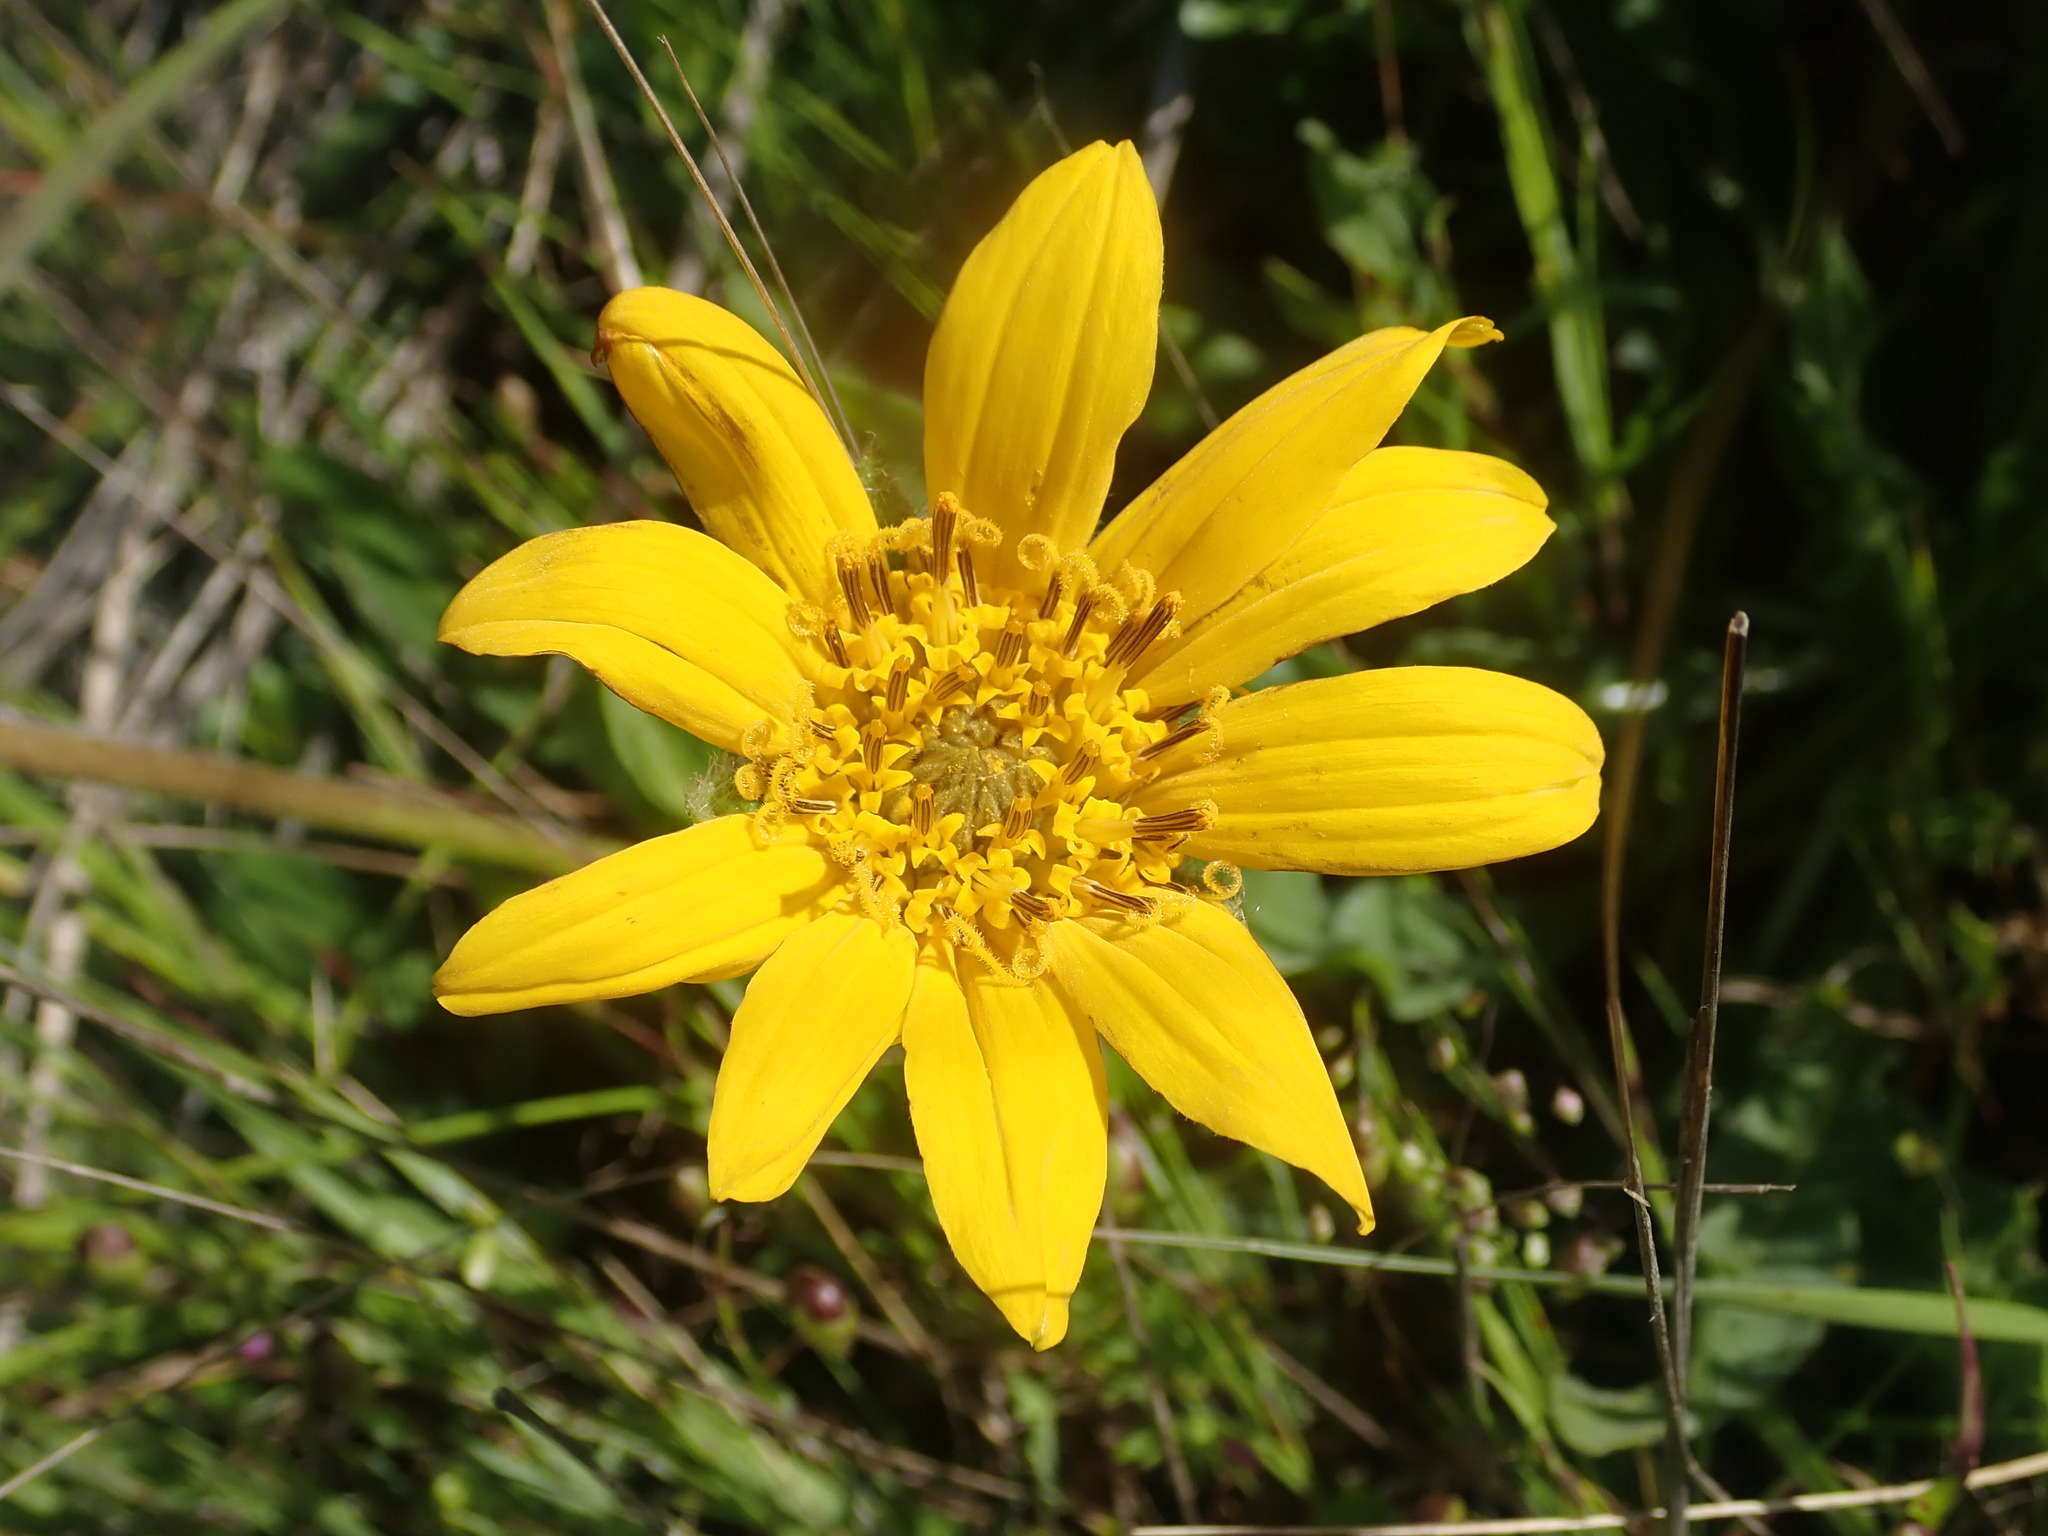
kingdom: Plantae
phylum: Tracheophyta
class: Magnoliopsida
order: Asterales
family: Asteraceae
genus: Wyethia
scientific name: Wyethia angustifolia
